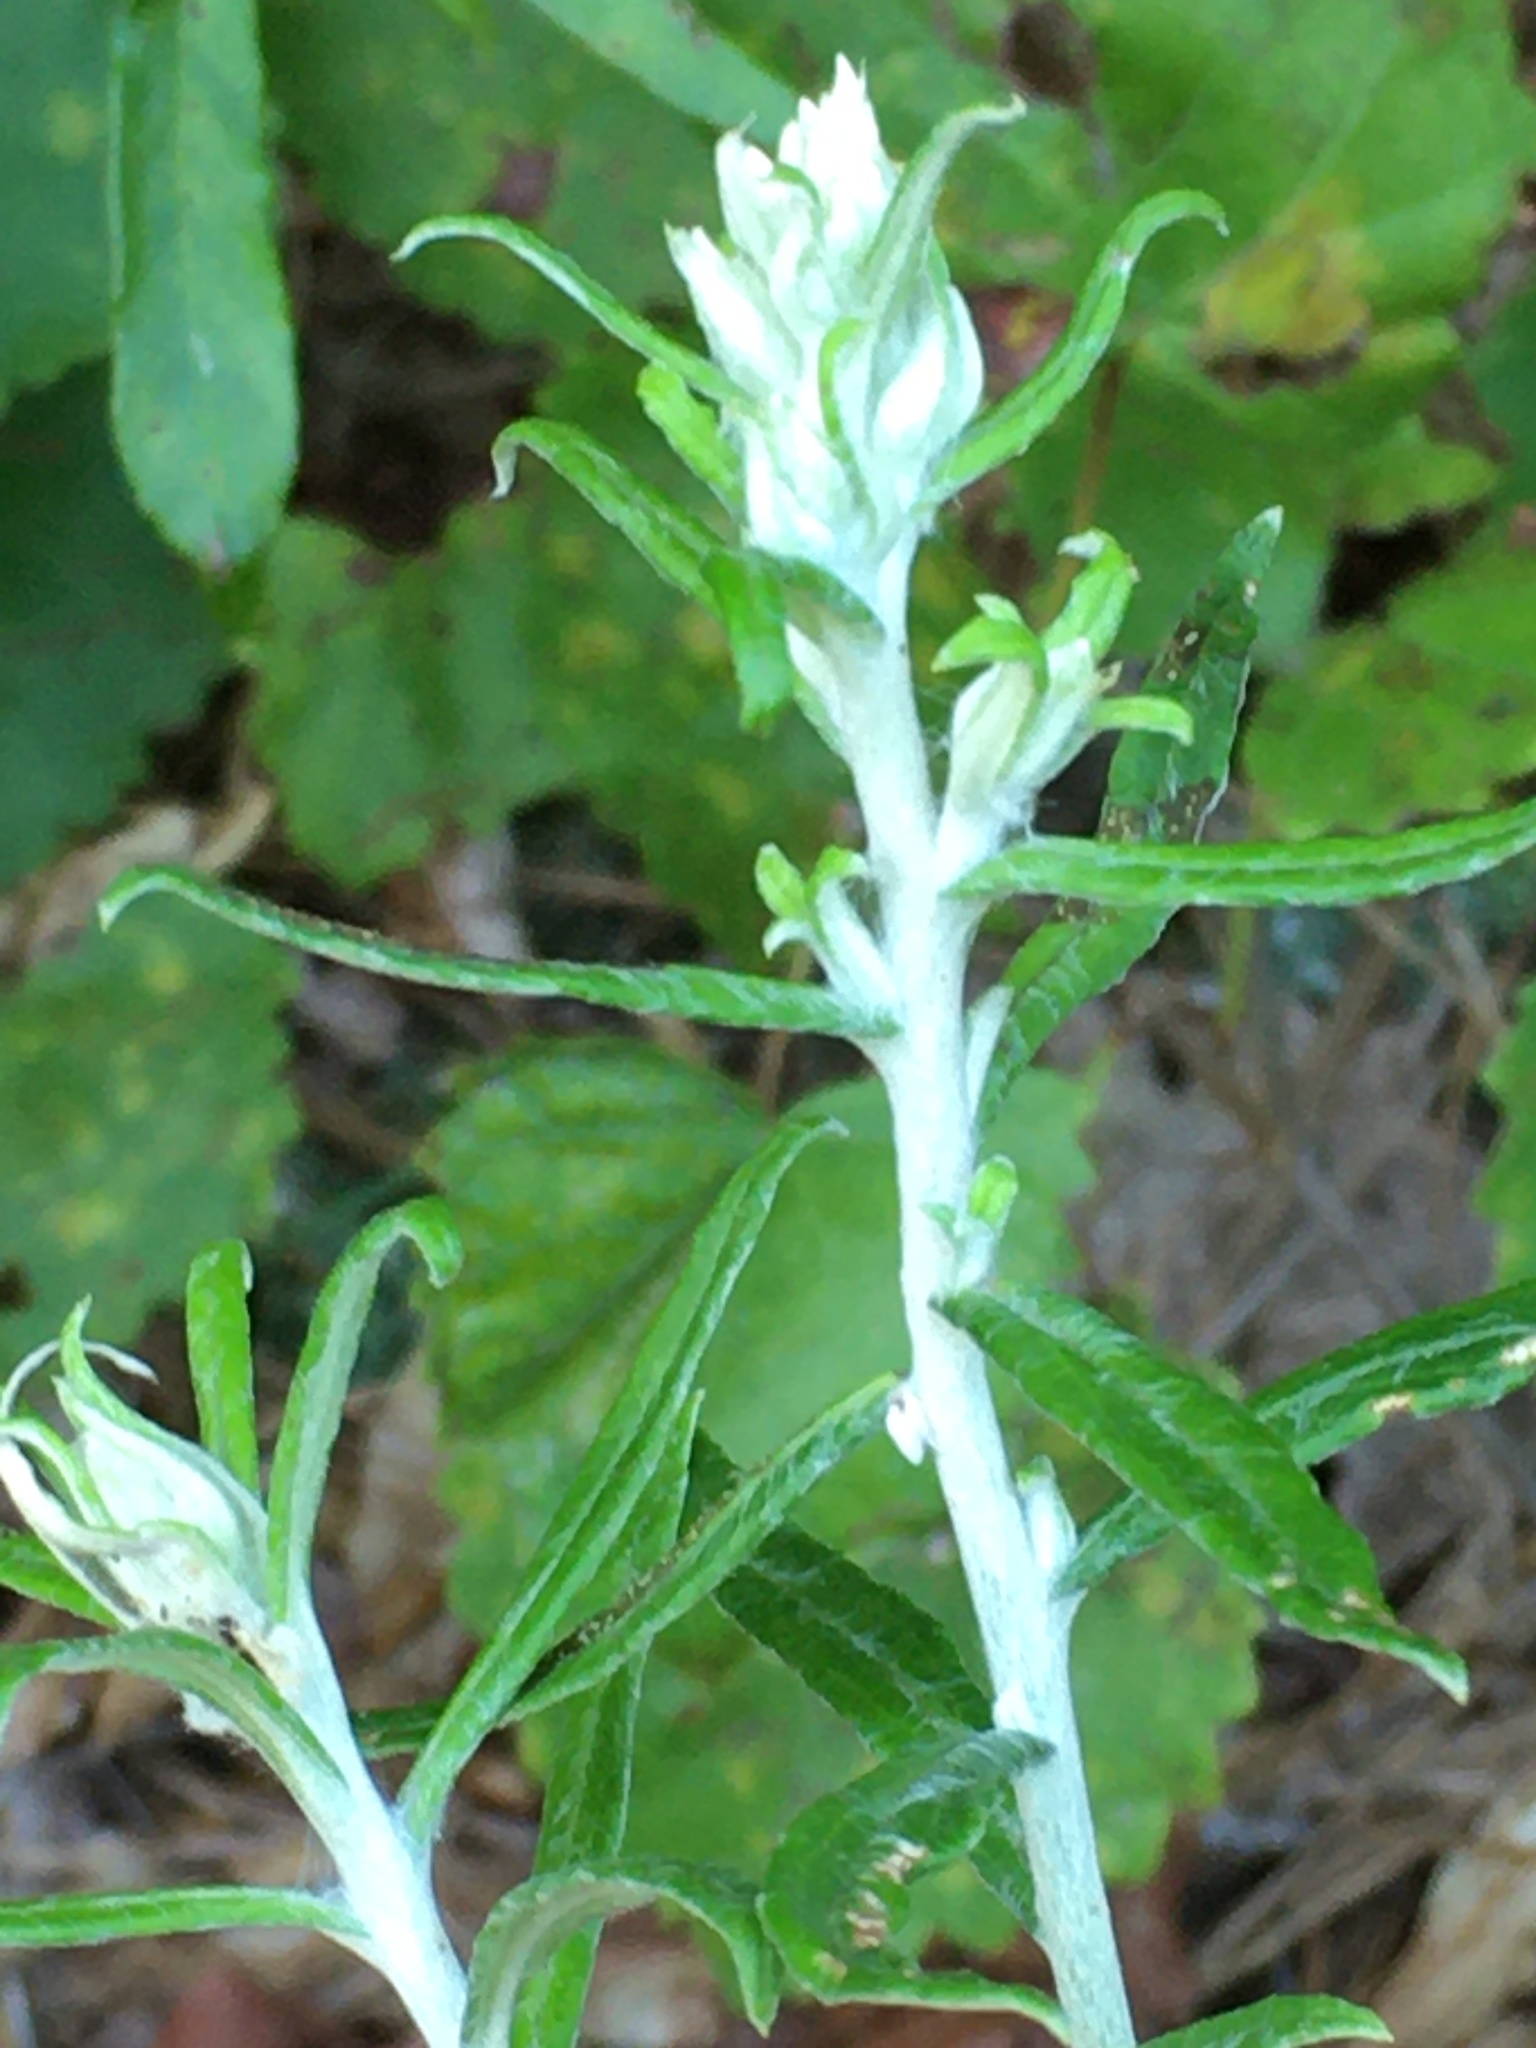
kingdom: Plantae
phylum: Tracheophyta
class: Magnoliopsida
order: Asterales
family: Asteraceae
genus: Pseudognaphalium
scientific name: Pseudognaphalium obtusifolium
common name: Eastern rabbit-tobacco
